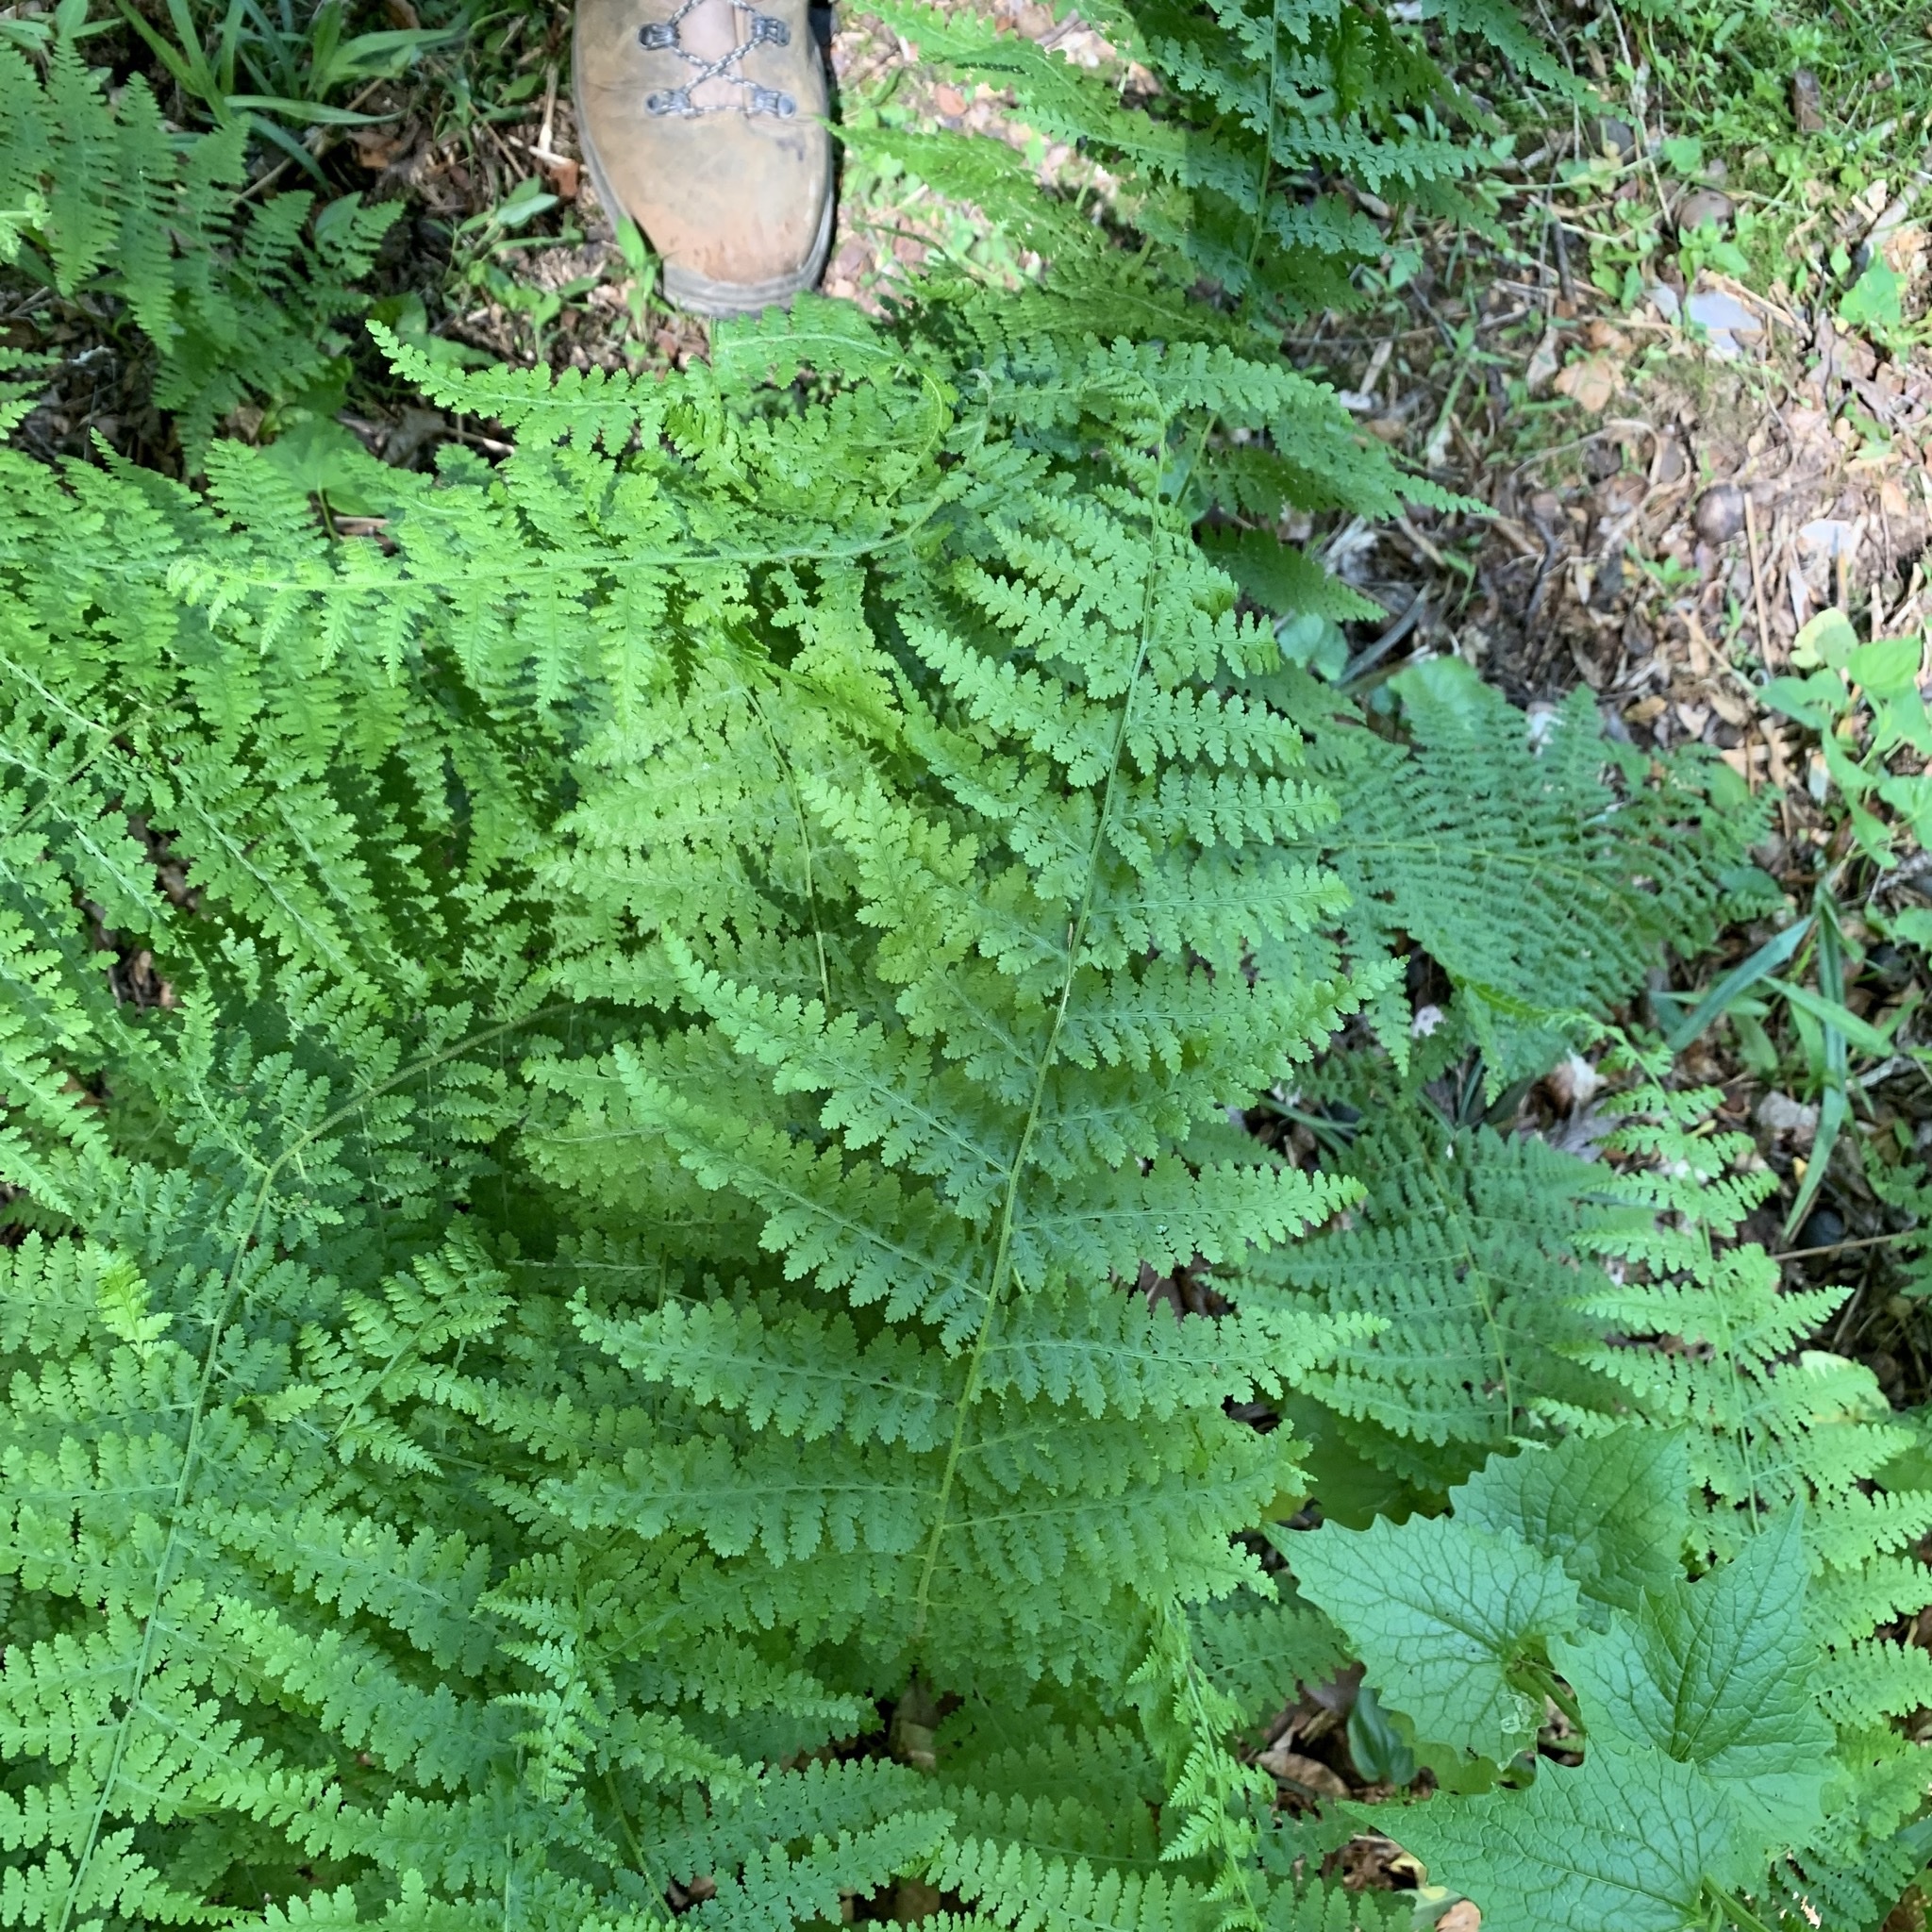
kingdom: Plantae
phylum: Tracheophyta
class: Polypodiopsida
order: Polypodiales
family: Dennstaedtiaceae
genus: Sitobolium
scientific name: Sitobolium punctilobum
